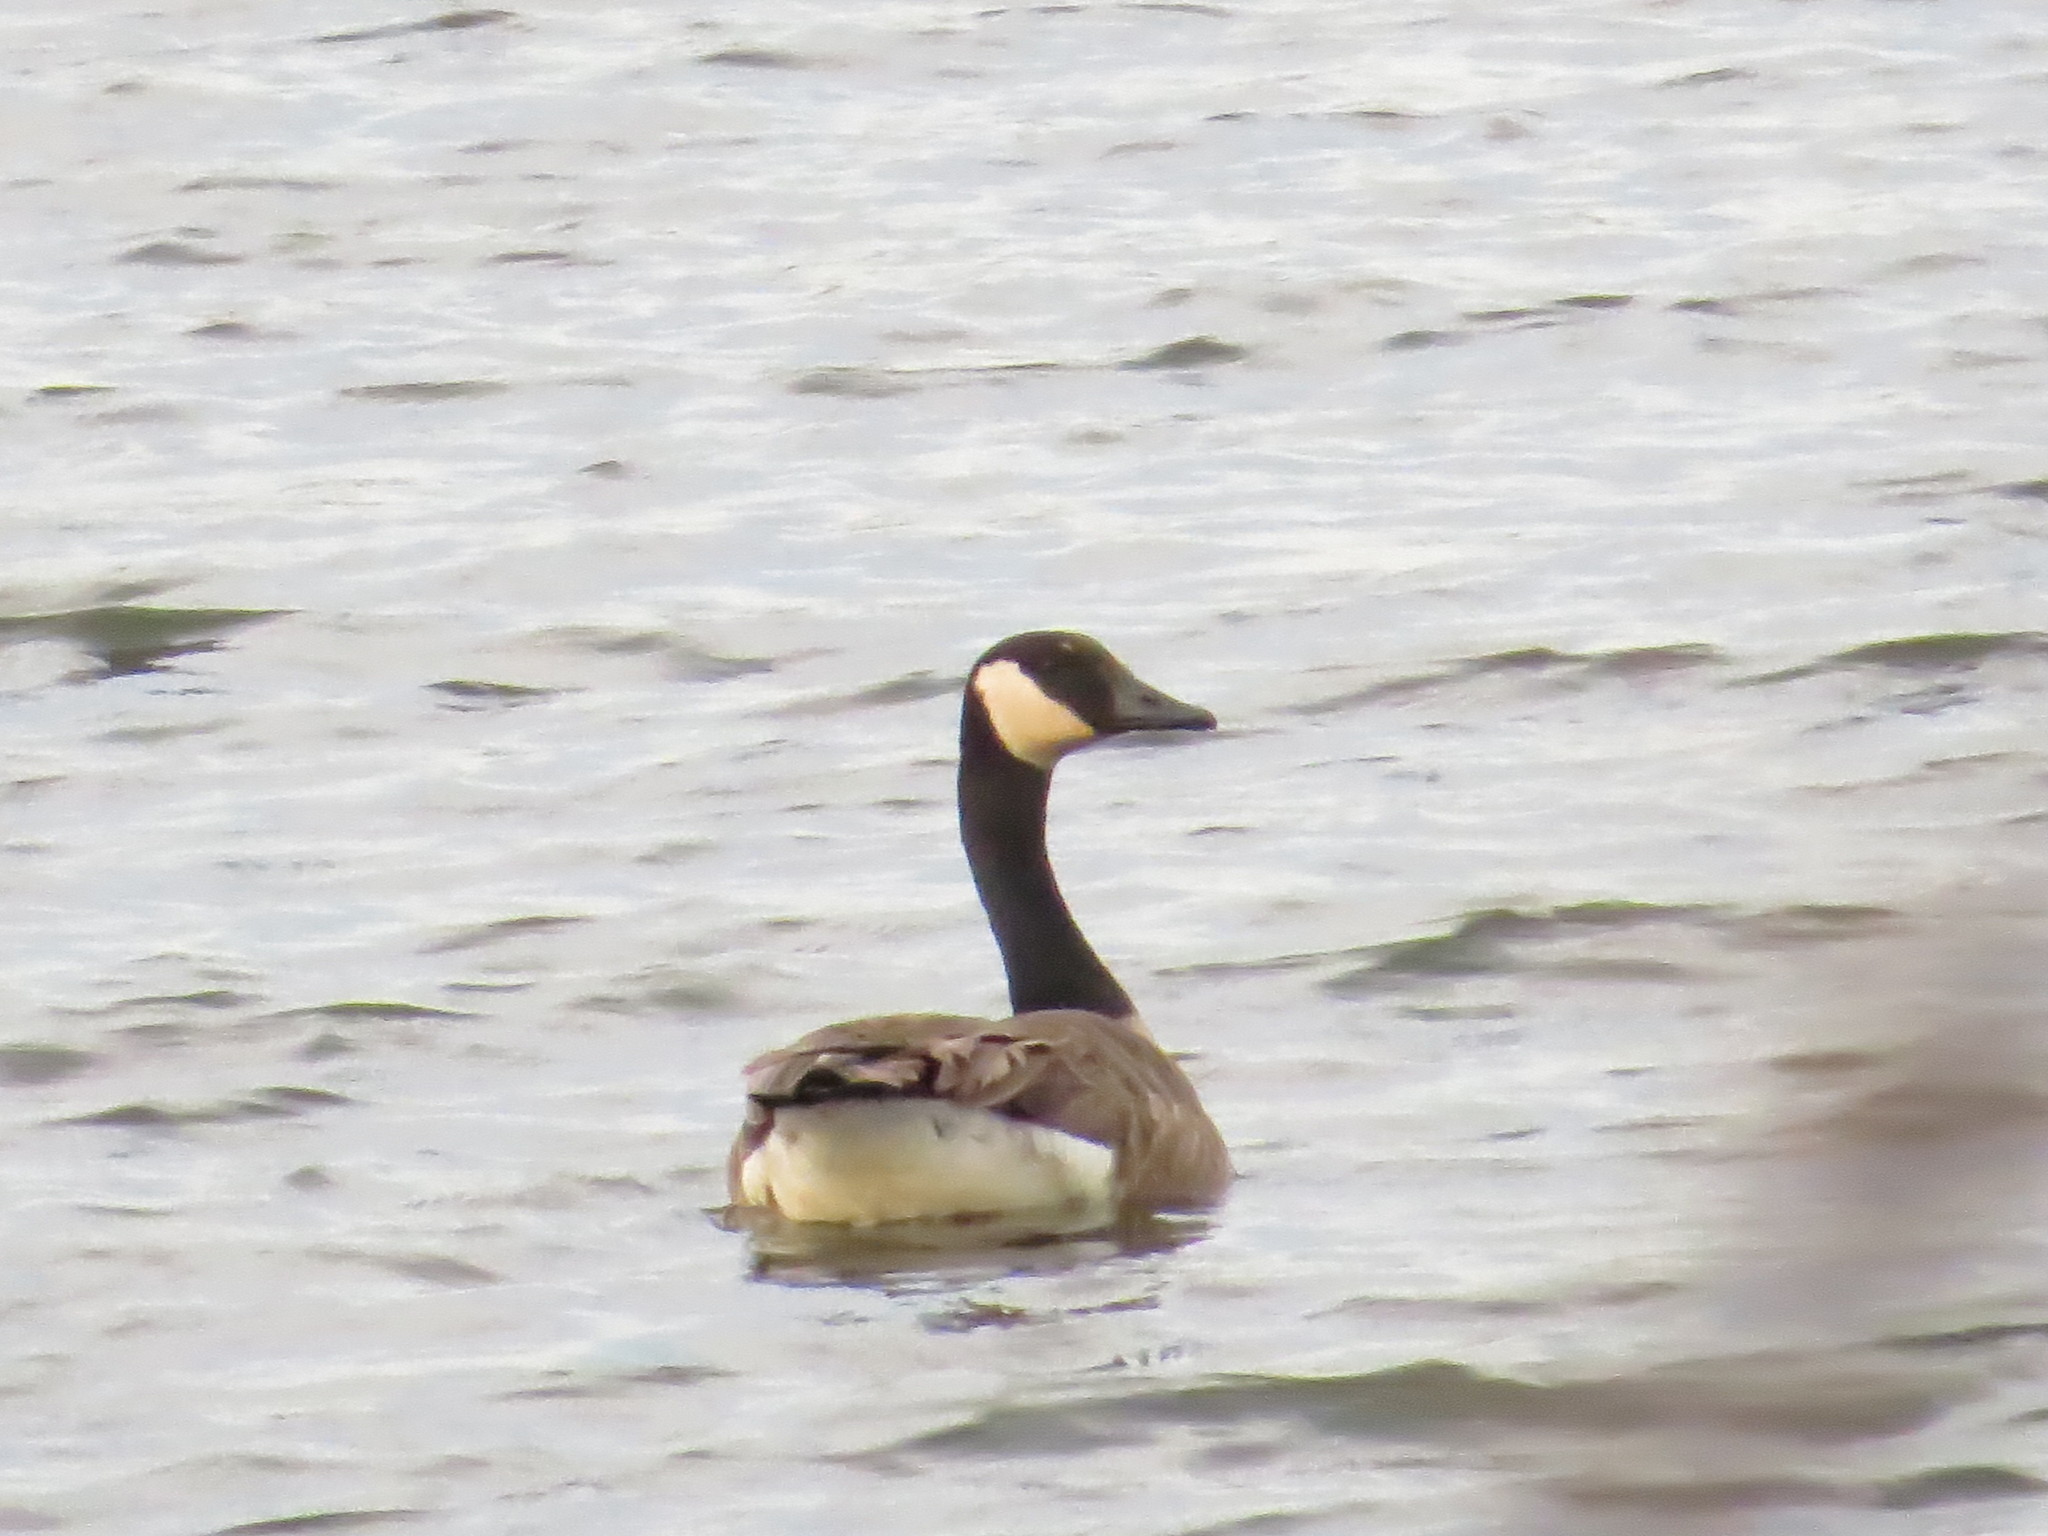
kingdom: Animalia
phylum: Chordata
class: Aves
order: Anseriformes
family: Anatidae
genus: Branta
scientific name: Branta canadensis
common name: Canada goose
